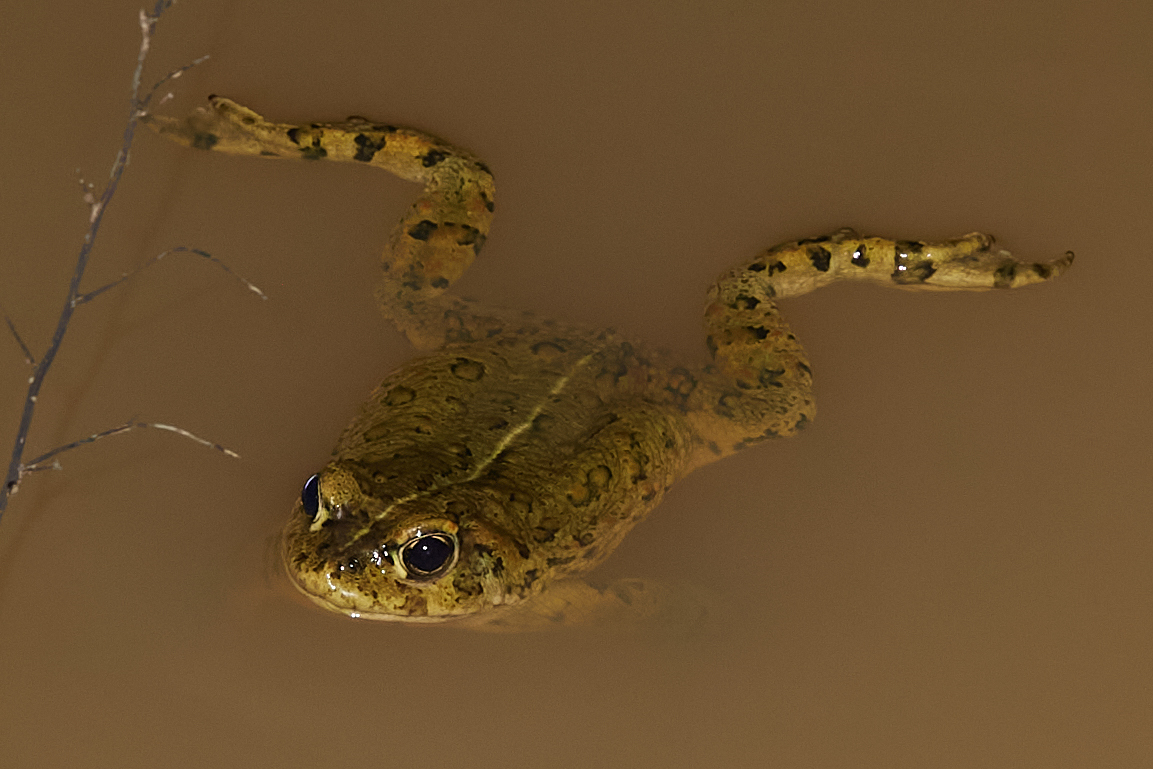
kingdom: Animalia
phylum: Chordata
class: Amphibia
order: Anura
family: Bufonidae
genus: Anaxyrus
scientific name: Anaxyrus boreas
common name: Western toad
